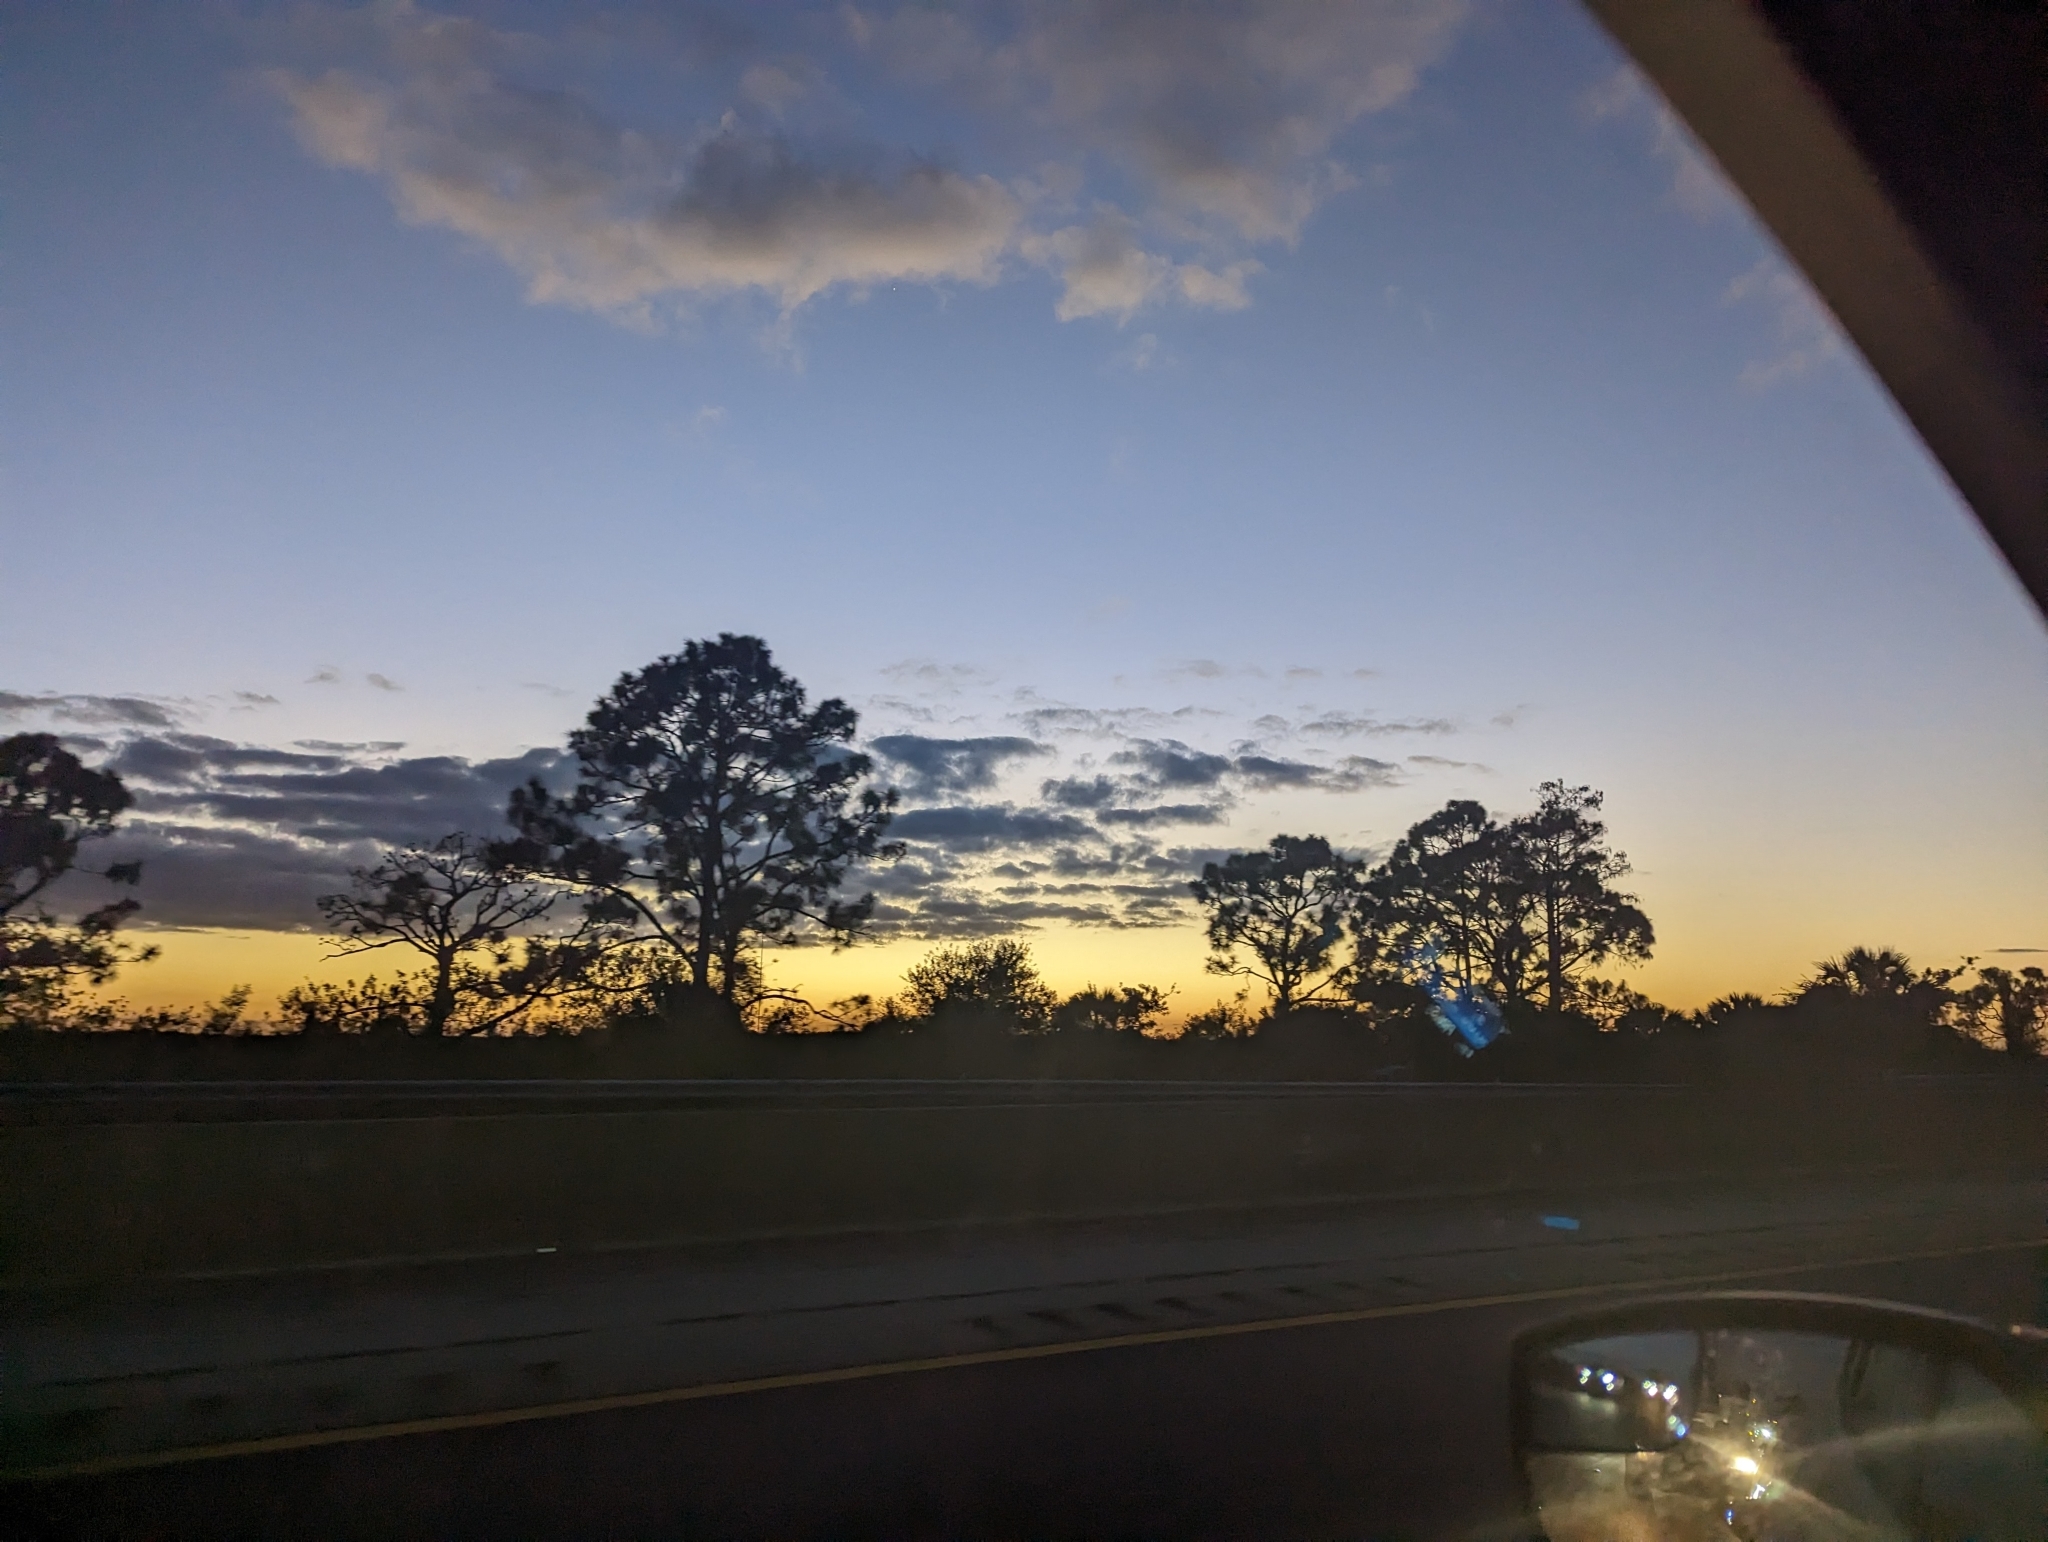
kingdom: Plantae
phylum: Tracheophyta
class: Pinopsida
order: Pinales
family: Pinaceae
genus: Pinus
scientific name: Pinus elliottii
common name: Slash pine
